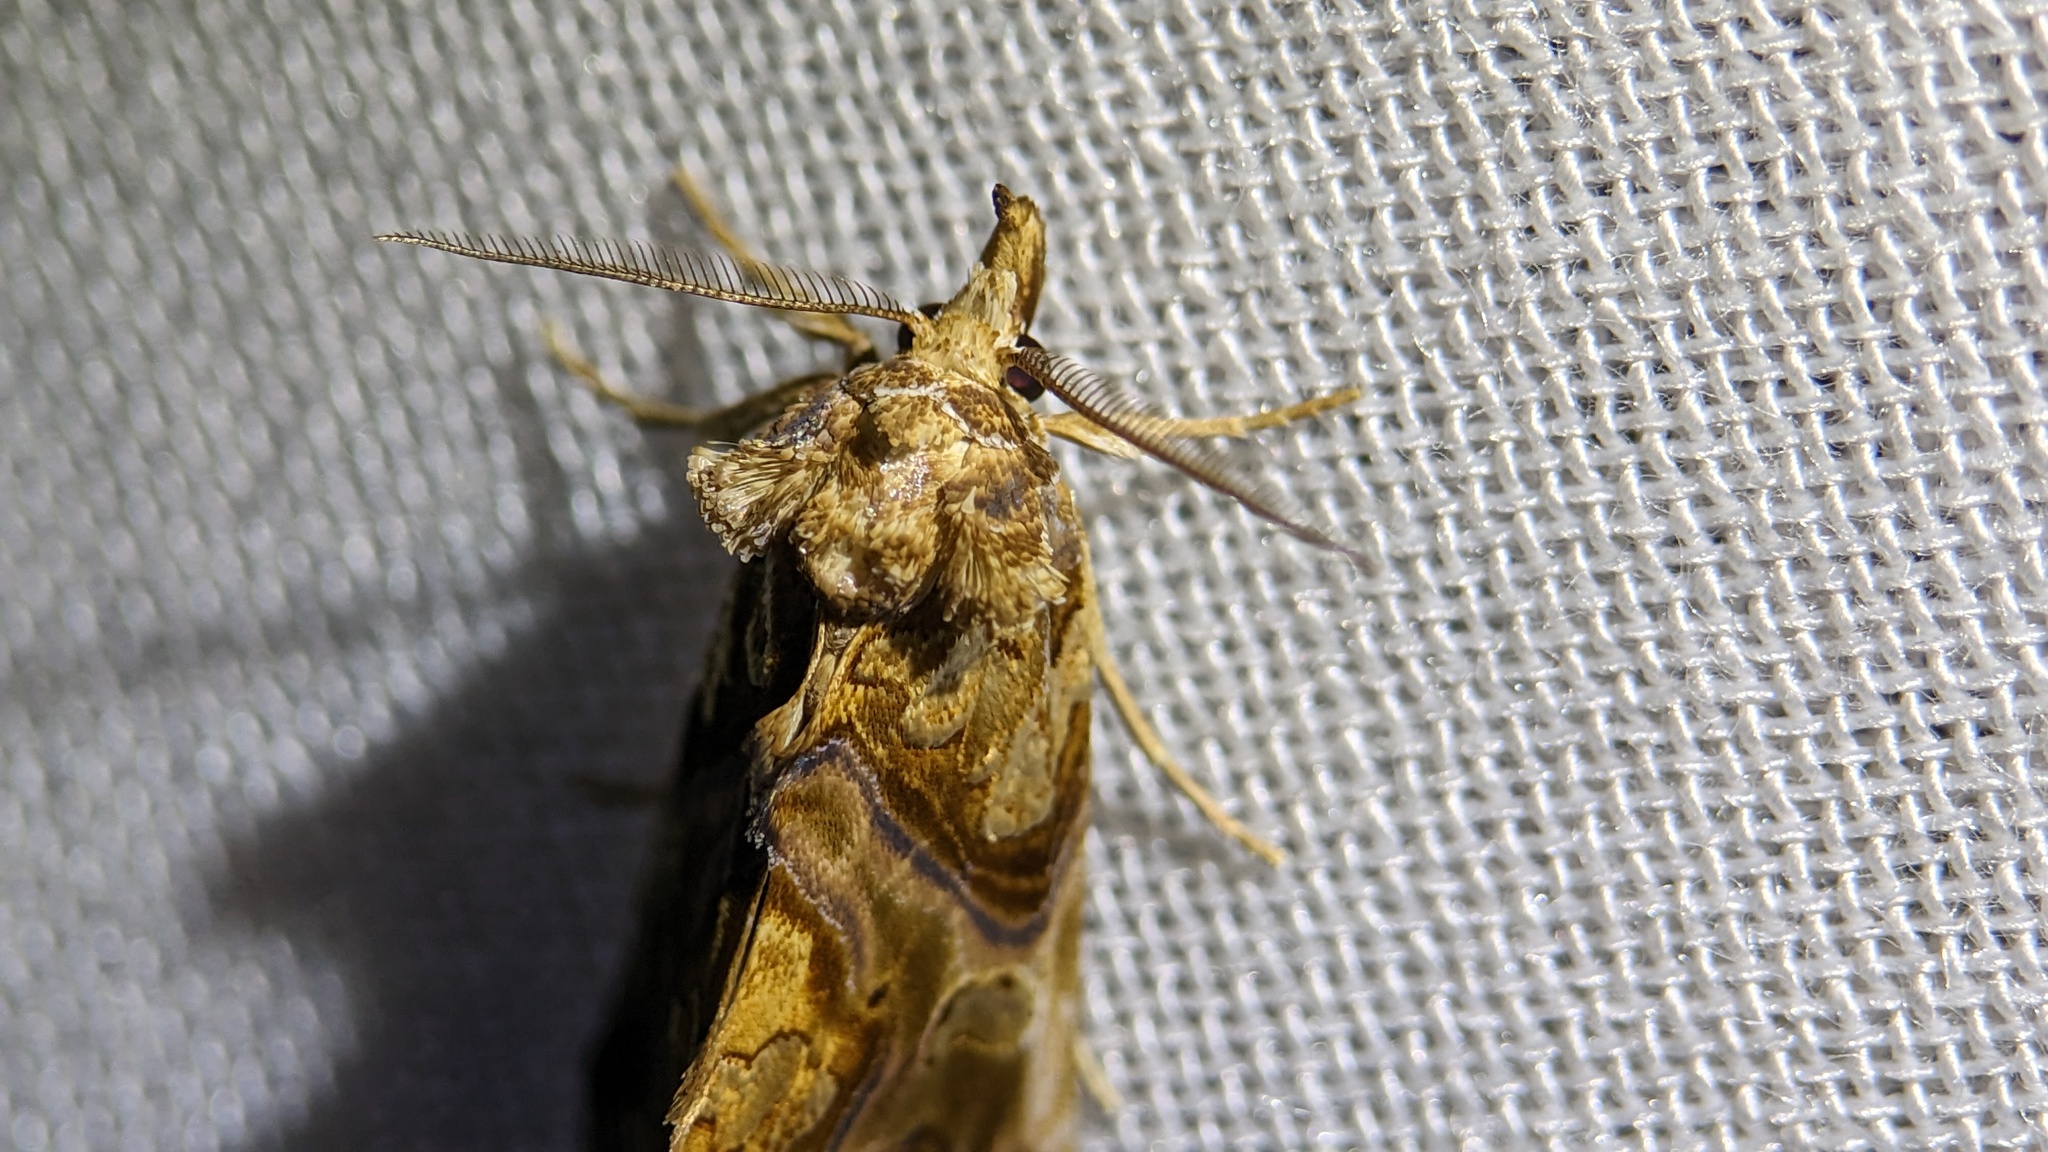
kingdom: Animalia
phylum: Arthropoda
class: Insecta
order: Lepidoptera
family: Erebidae
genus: Plusiodonta
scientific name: Plusiodonta compressipalpis
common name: Moonseed moth
